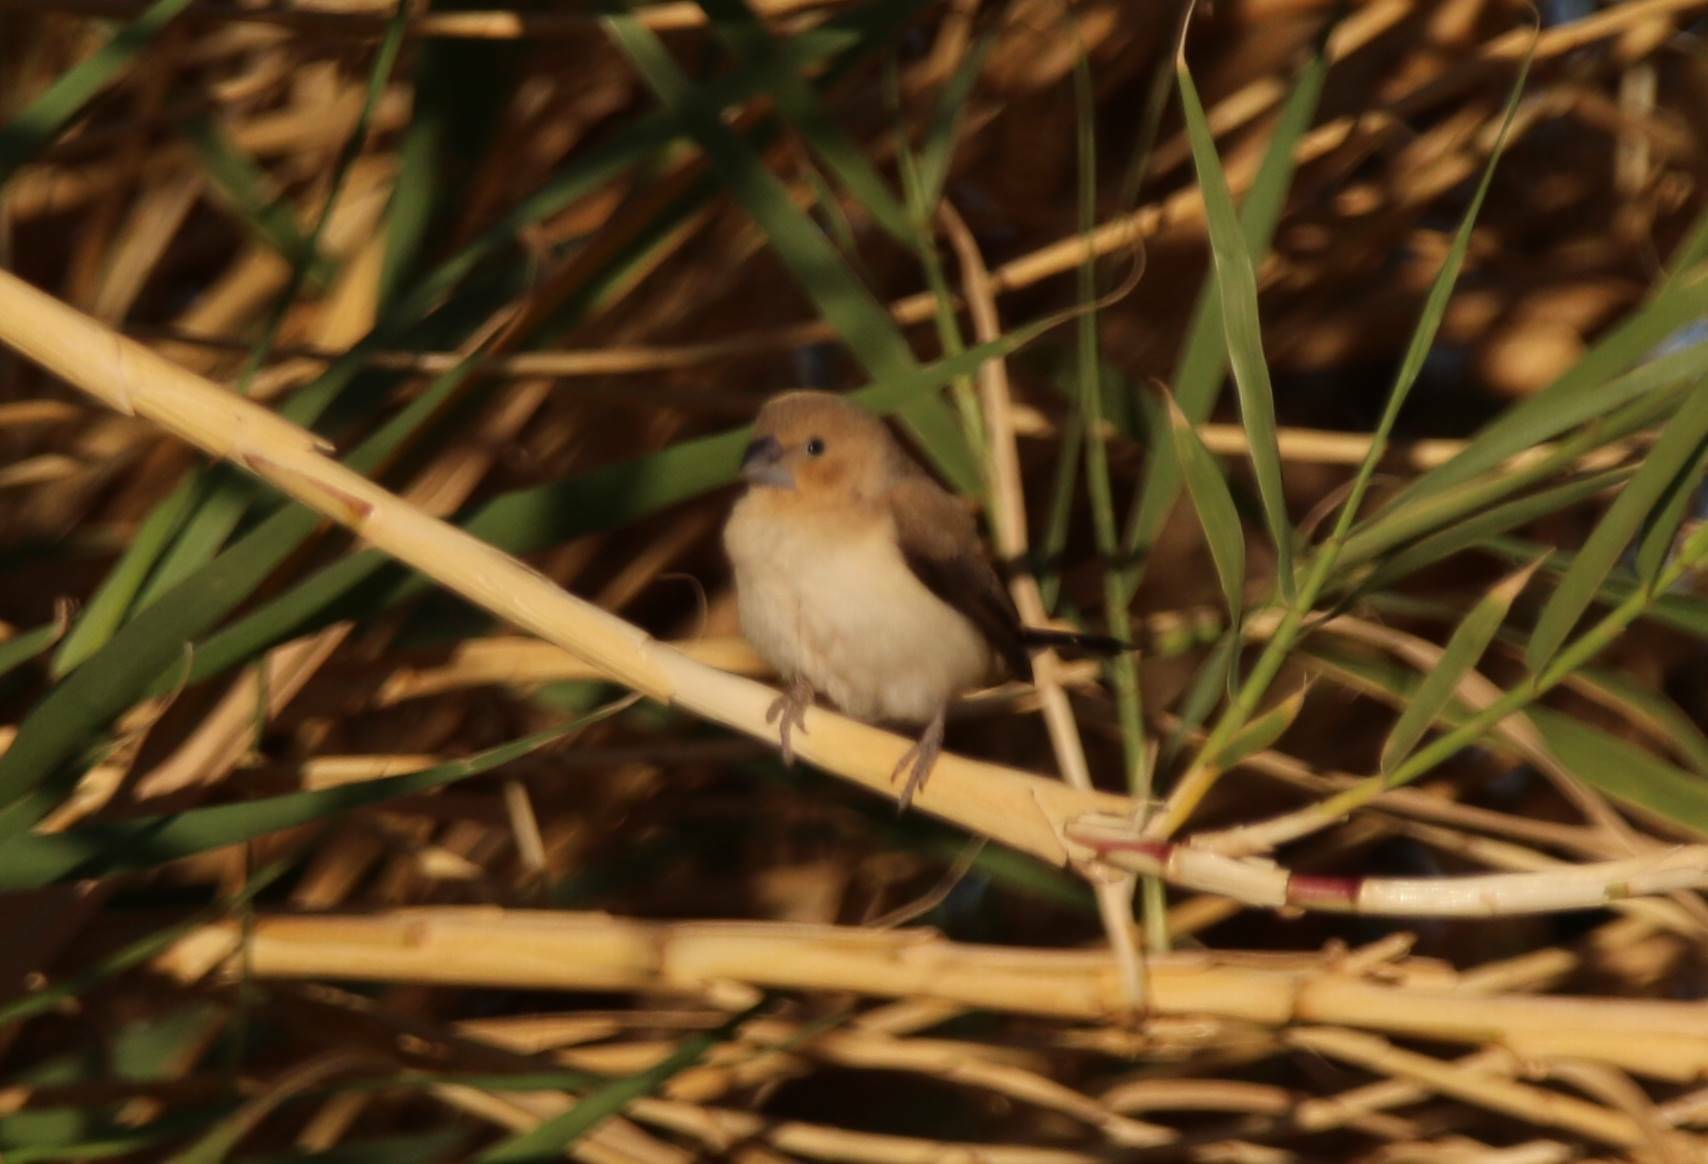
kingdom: Animalia
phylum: Chordata
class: Aves
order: Passeriformes
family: Estrildidae
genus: Euodice
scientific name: Euodice cantans
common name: African silverbill
